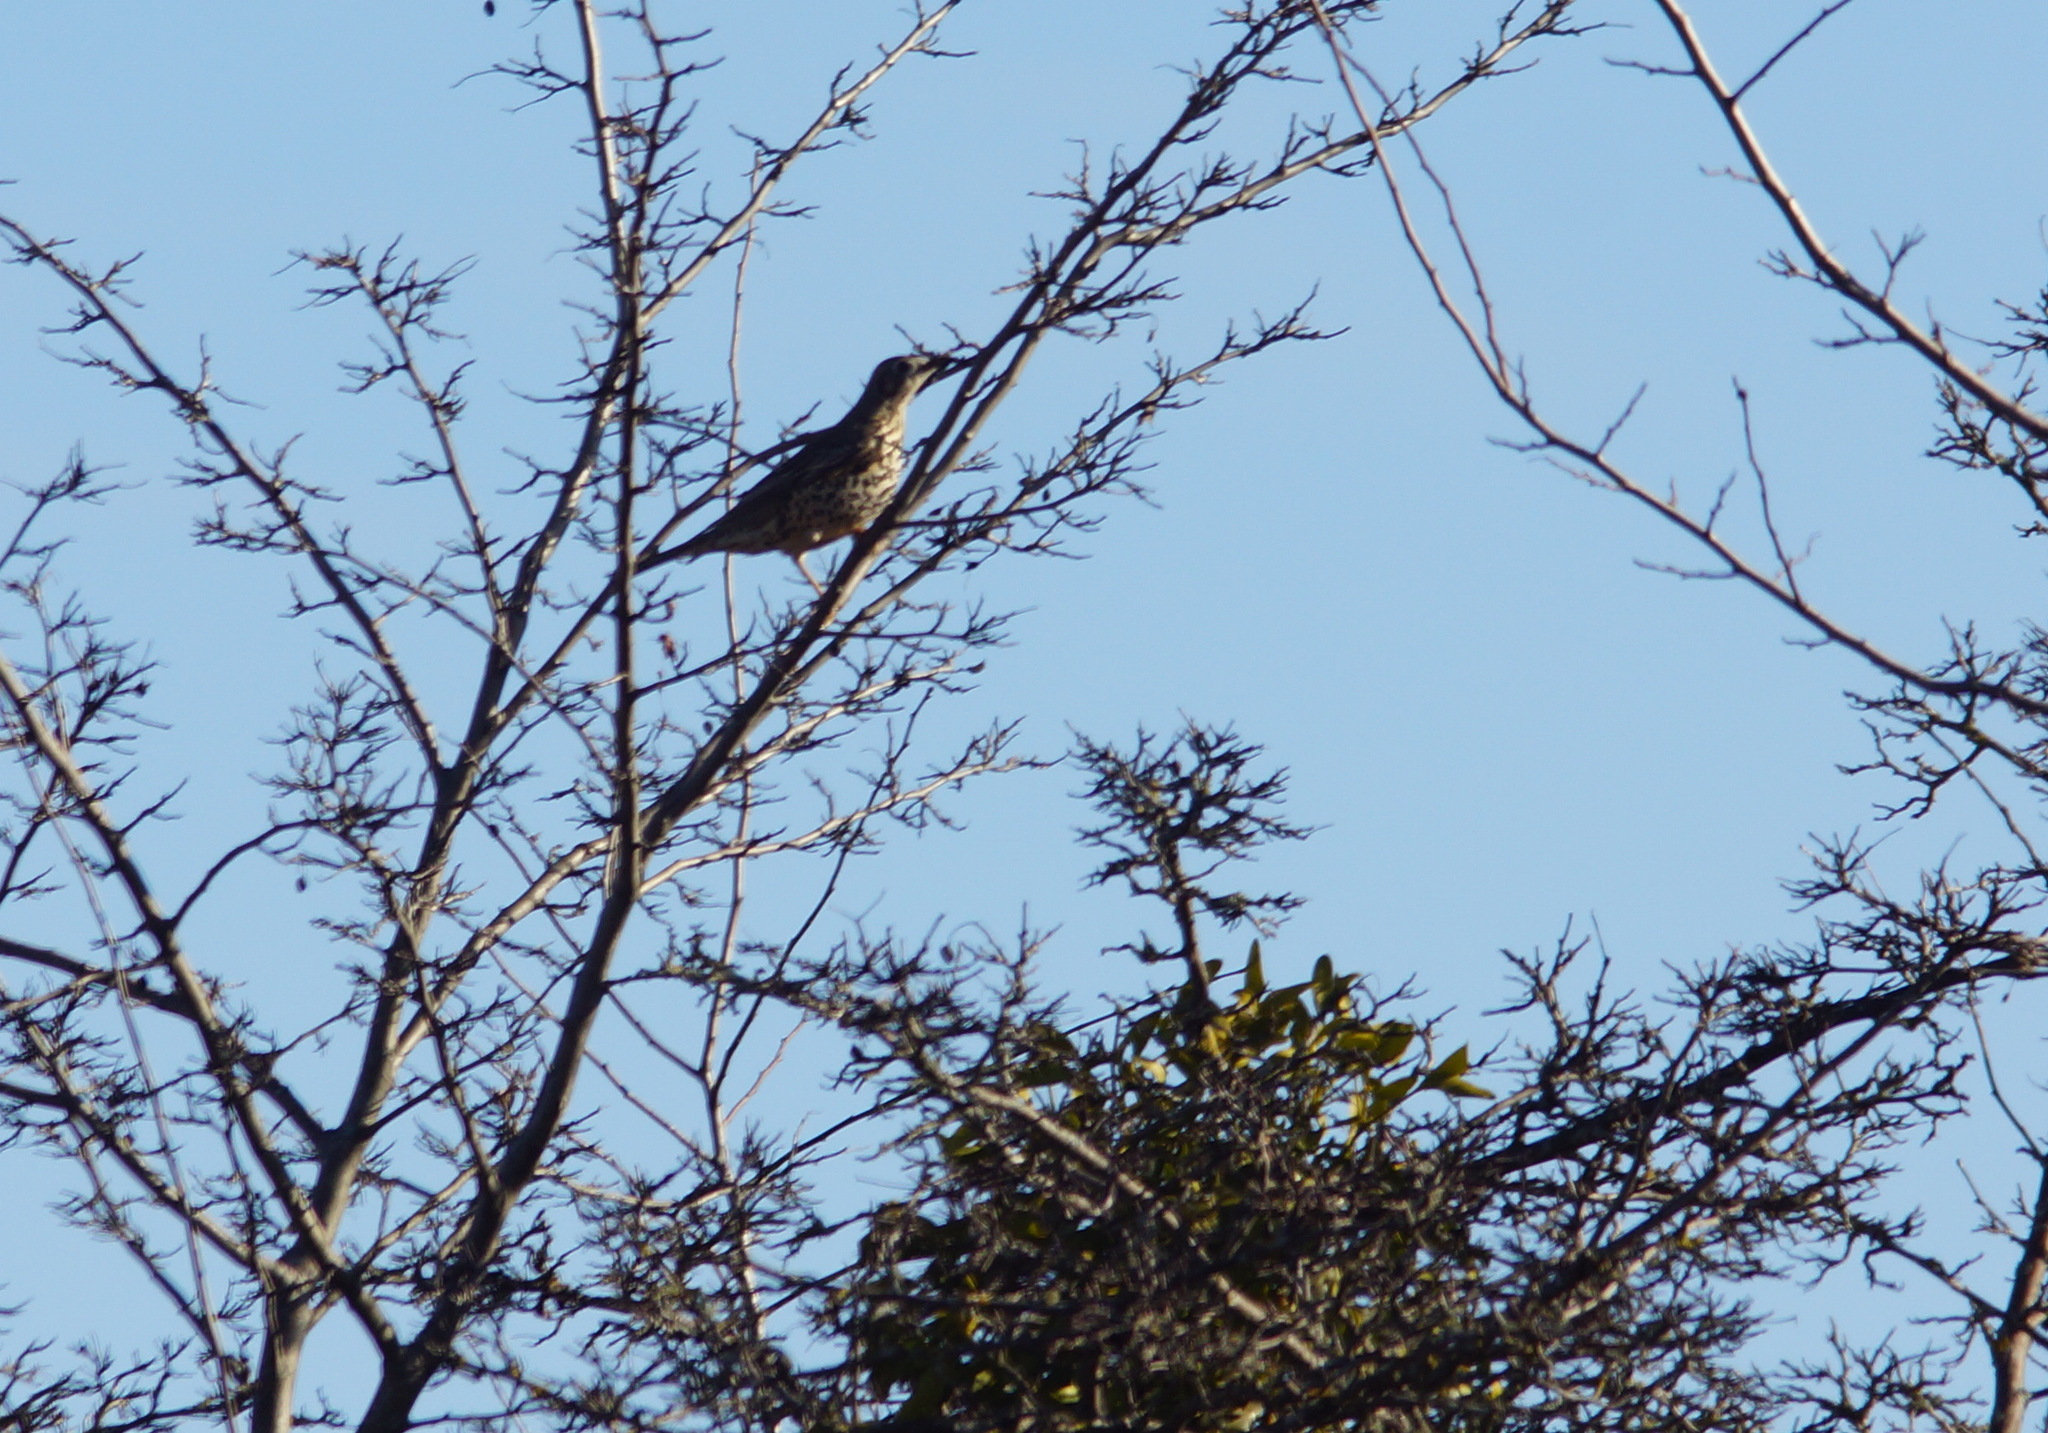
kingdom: Animalia
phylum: Chordata
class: Aves
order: Passeriformes
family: Turdidae
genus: Turdus
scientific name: Turdus viscivorus
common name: Mistle thrush
